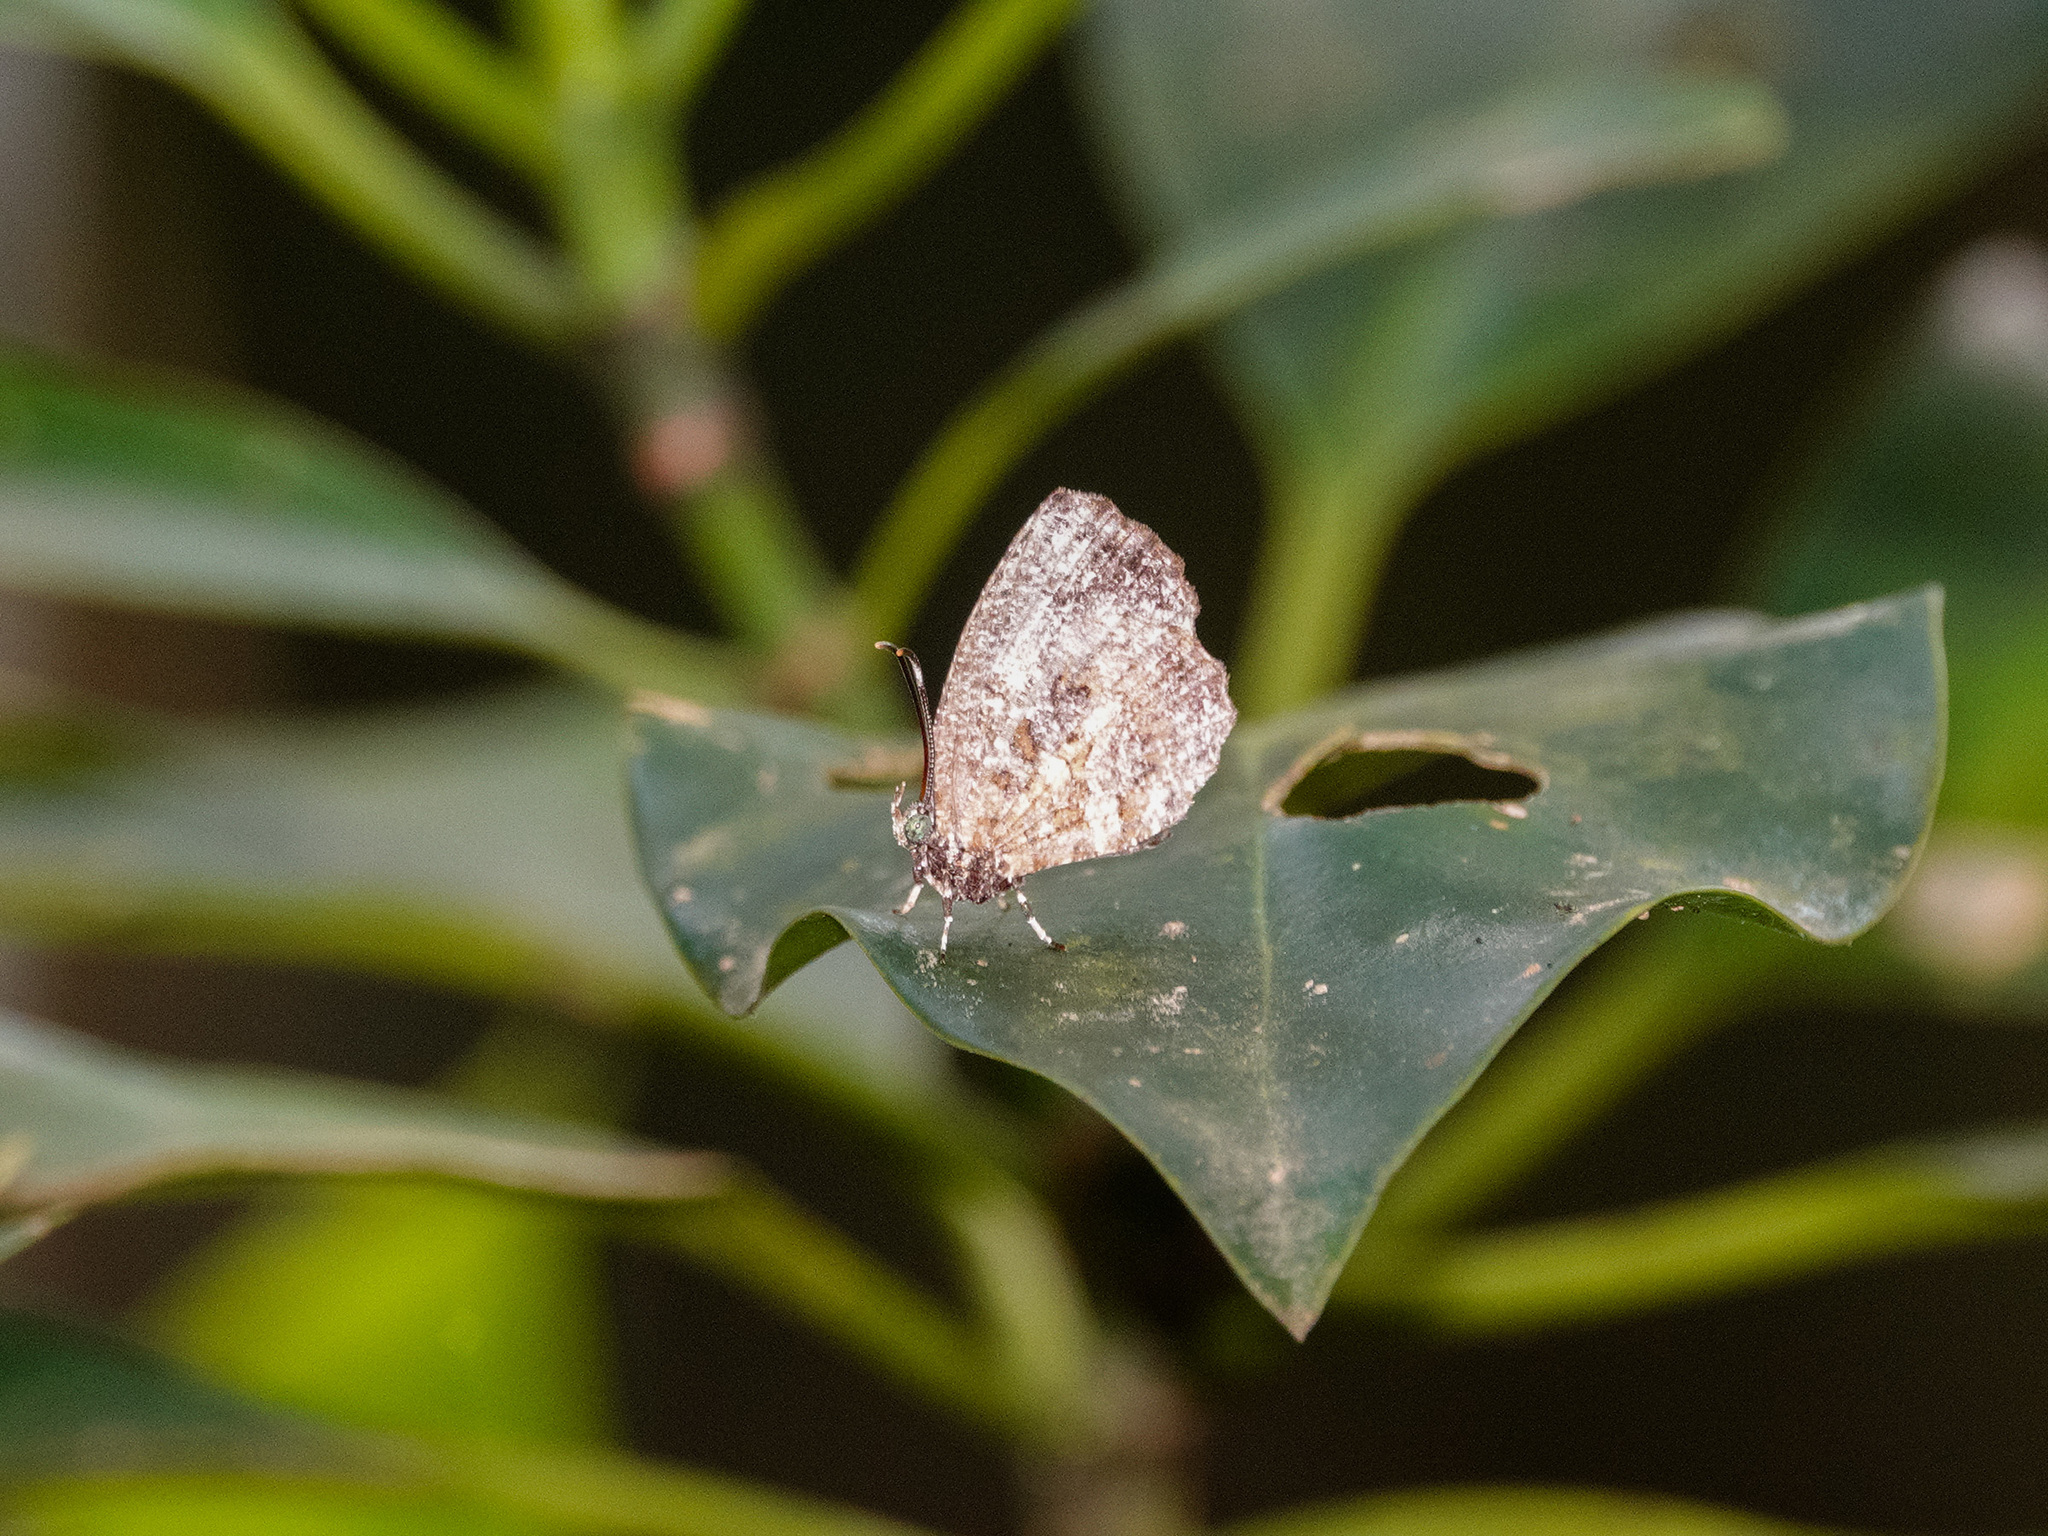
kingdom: Animalia
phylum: Arthropoda
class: Insecta
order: Lepidoptera
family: Lycaenidae
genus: Logania
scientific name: Logania marmorata
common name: Pale mottle
